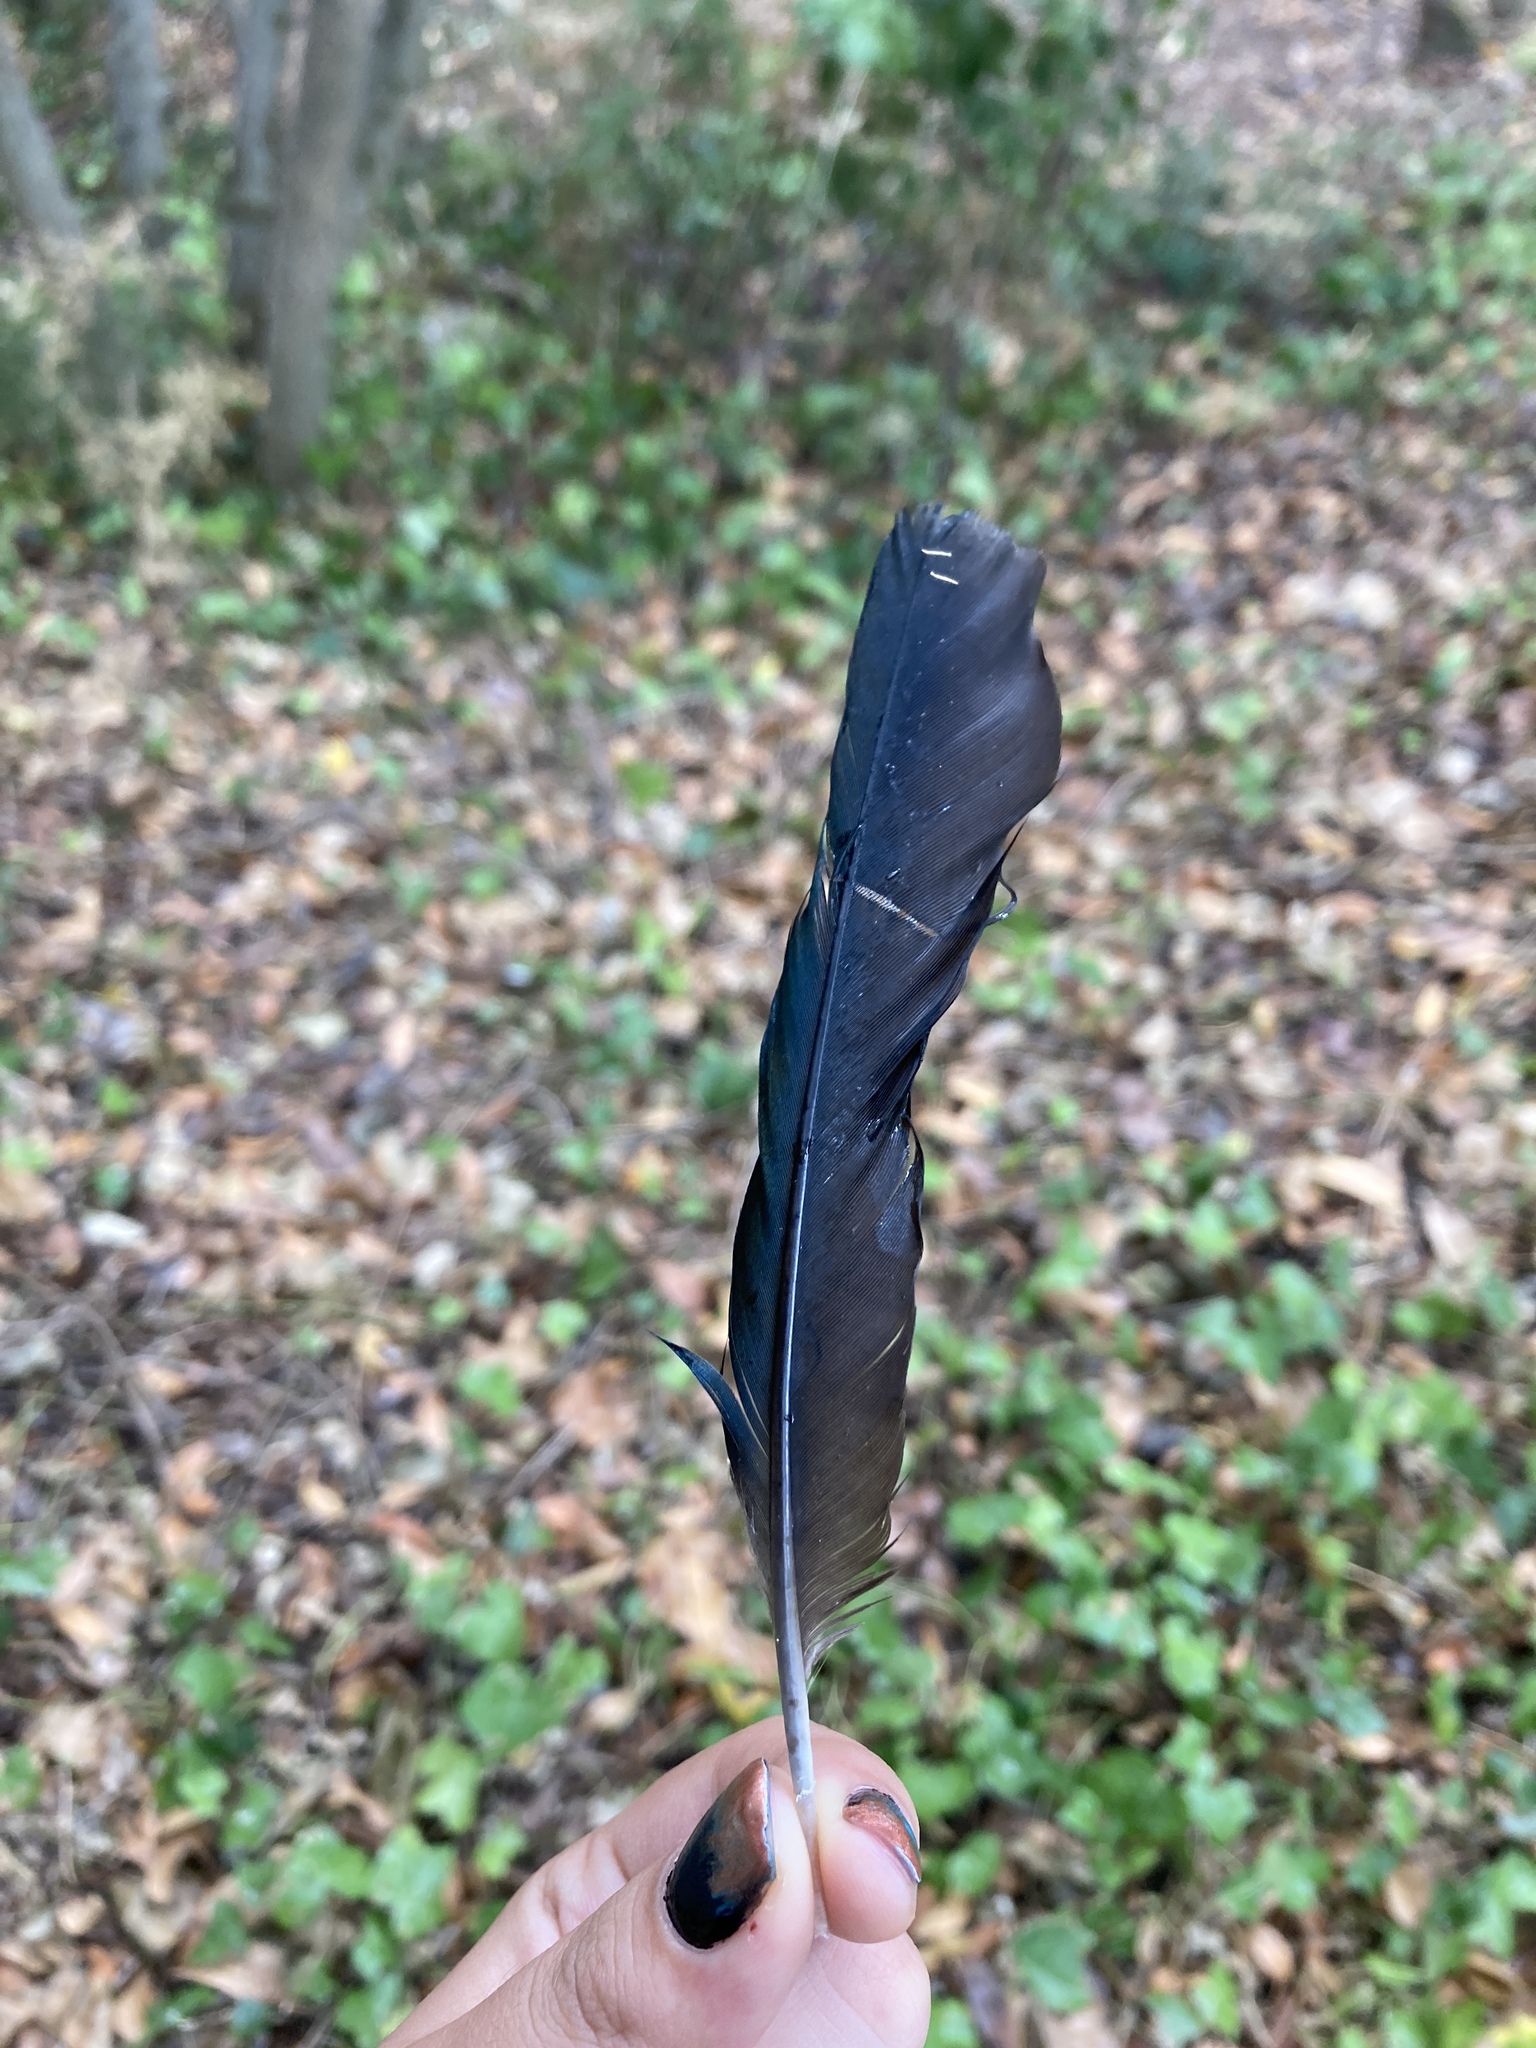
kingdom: Animalia
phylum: Chordata
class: Aves
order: Passeriformes
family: Corvidae
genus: Pica
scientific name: Pica pica
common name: Eurasian magpie
